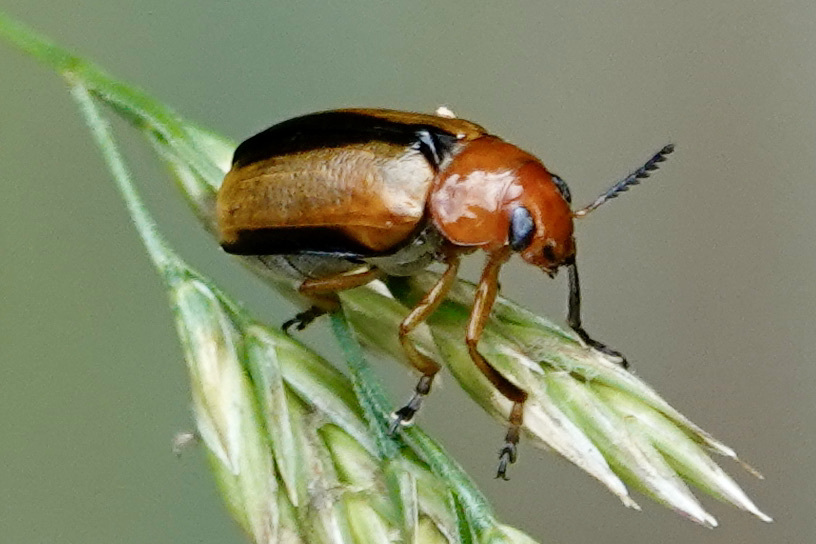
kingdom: Animalia
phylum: Arthropoda
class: Insecta
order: Coleoptera
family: Chrysomelidae
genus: Anomoea
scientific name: Anomoea laticlavia
